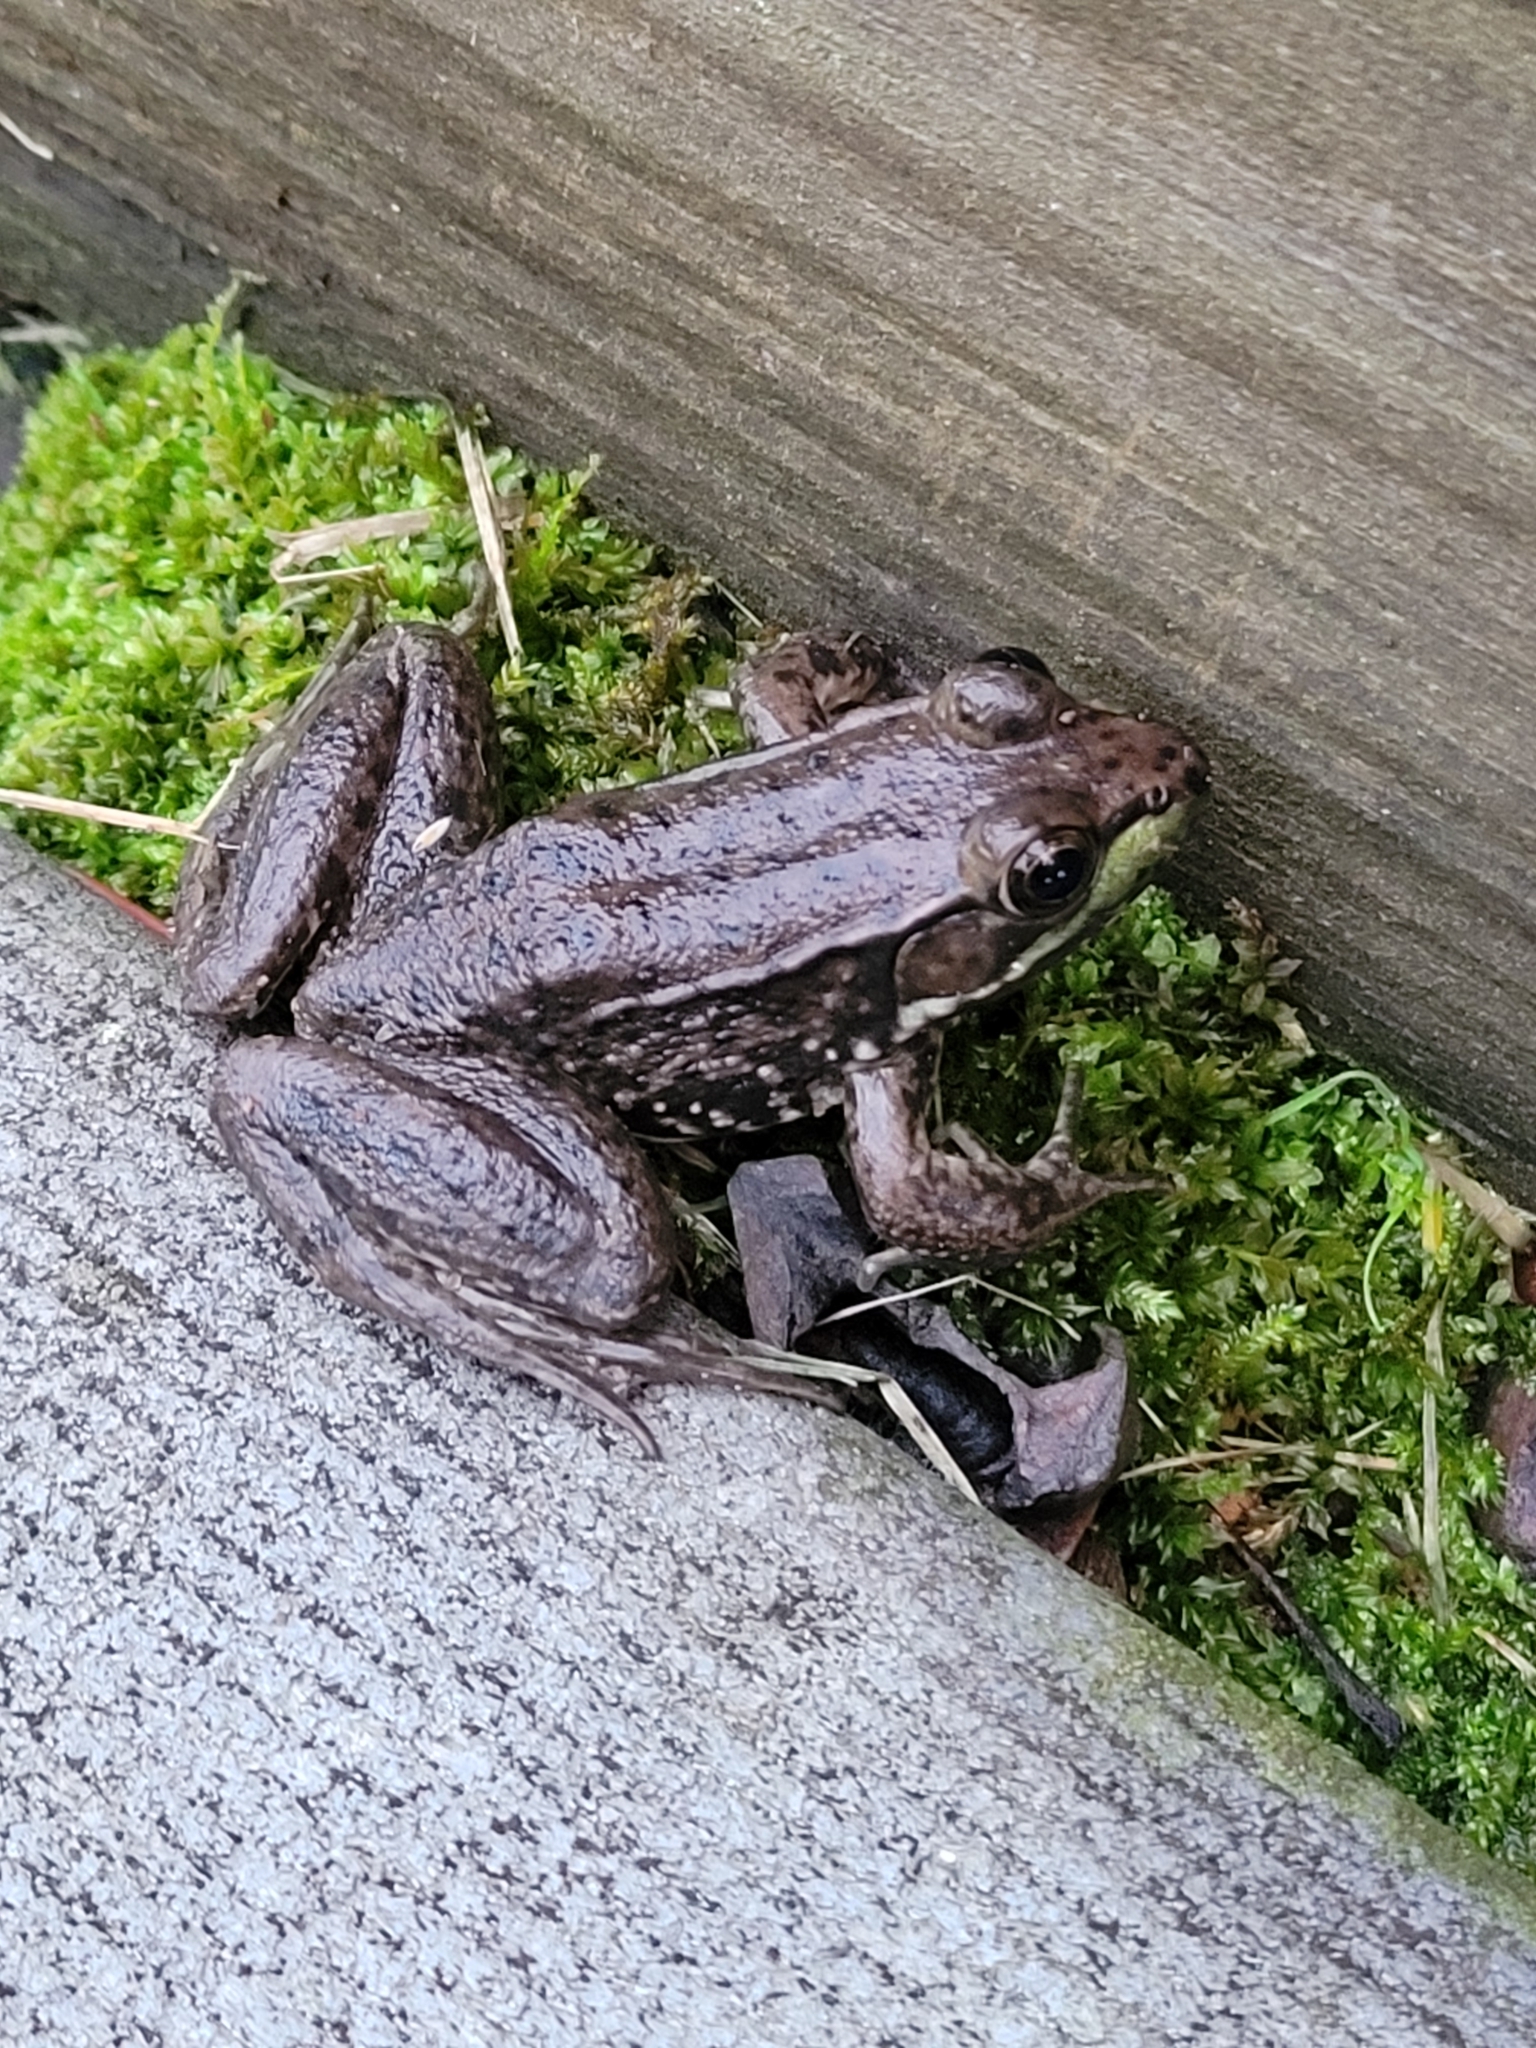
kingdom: Animalia
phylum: Chordata
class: Amphibia
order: Anura
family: Ranidae
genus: Lithobates
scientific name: Lithobates clamitans
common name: Green frog
